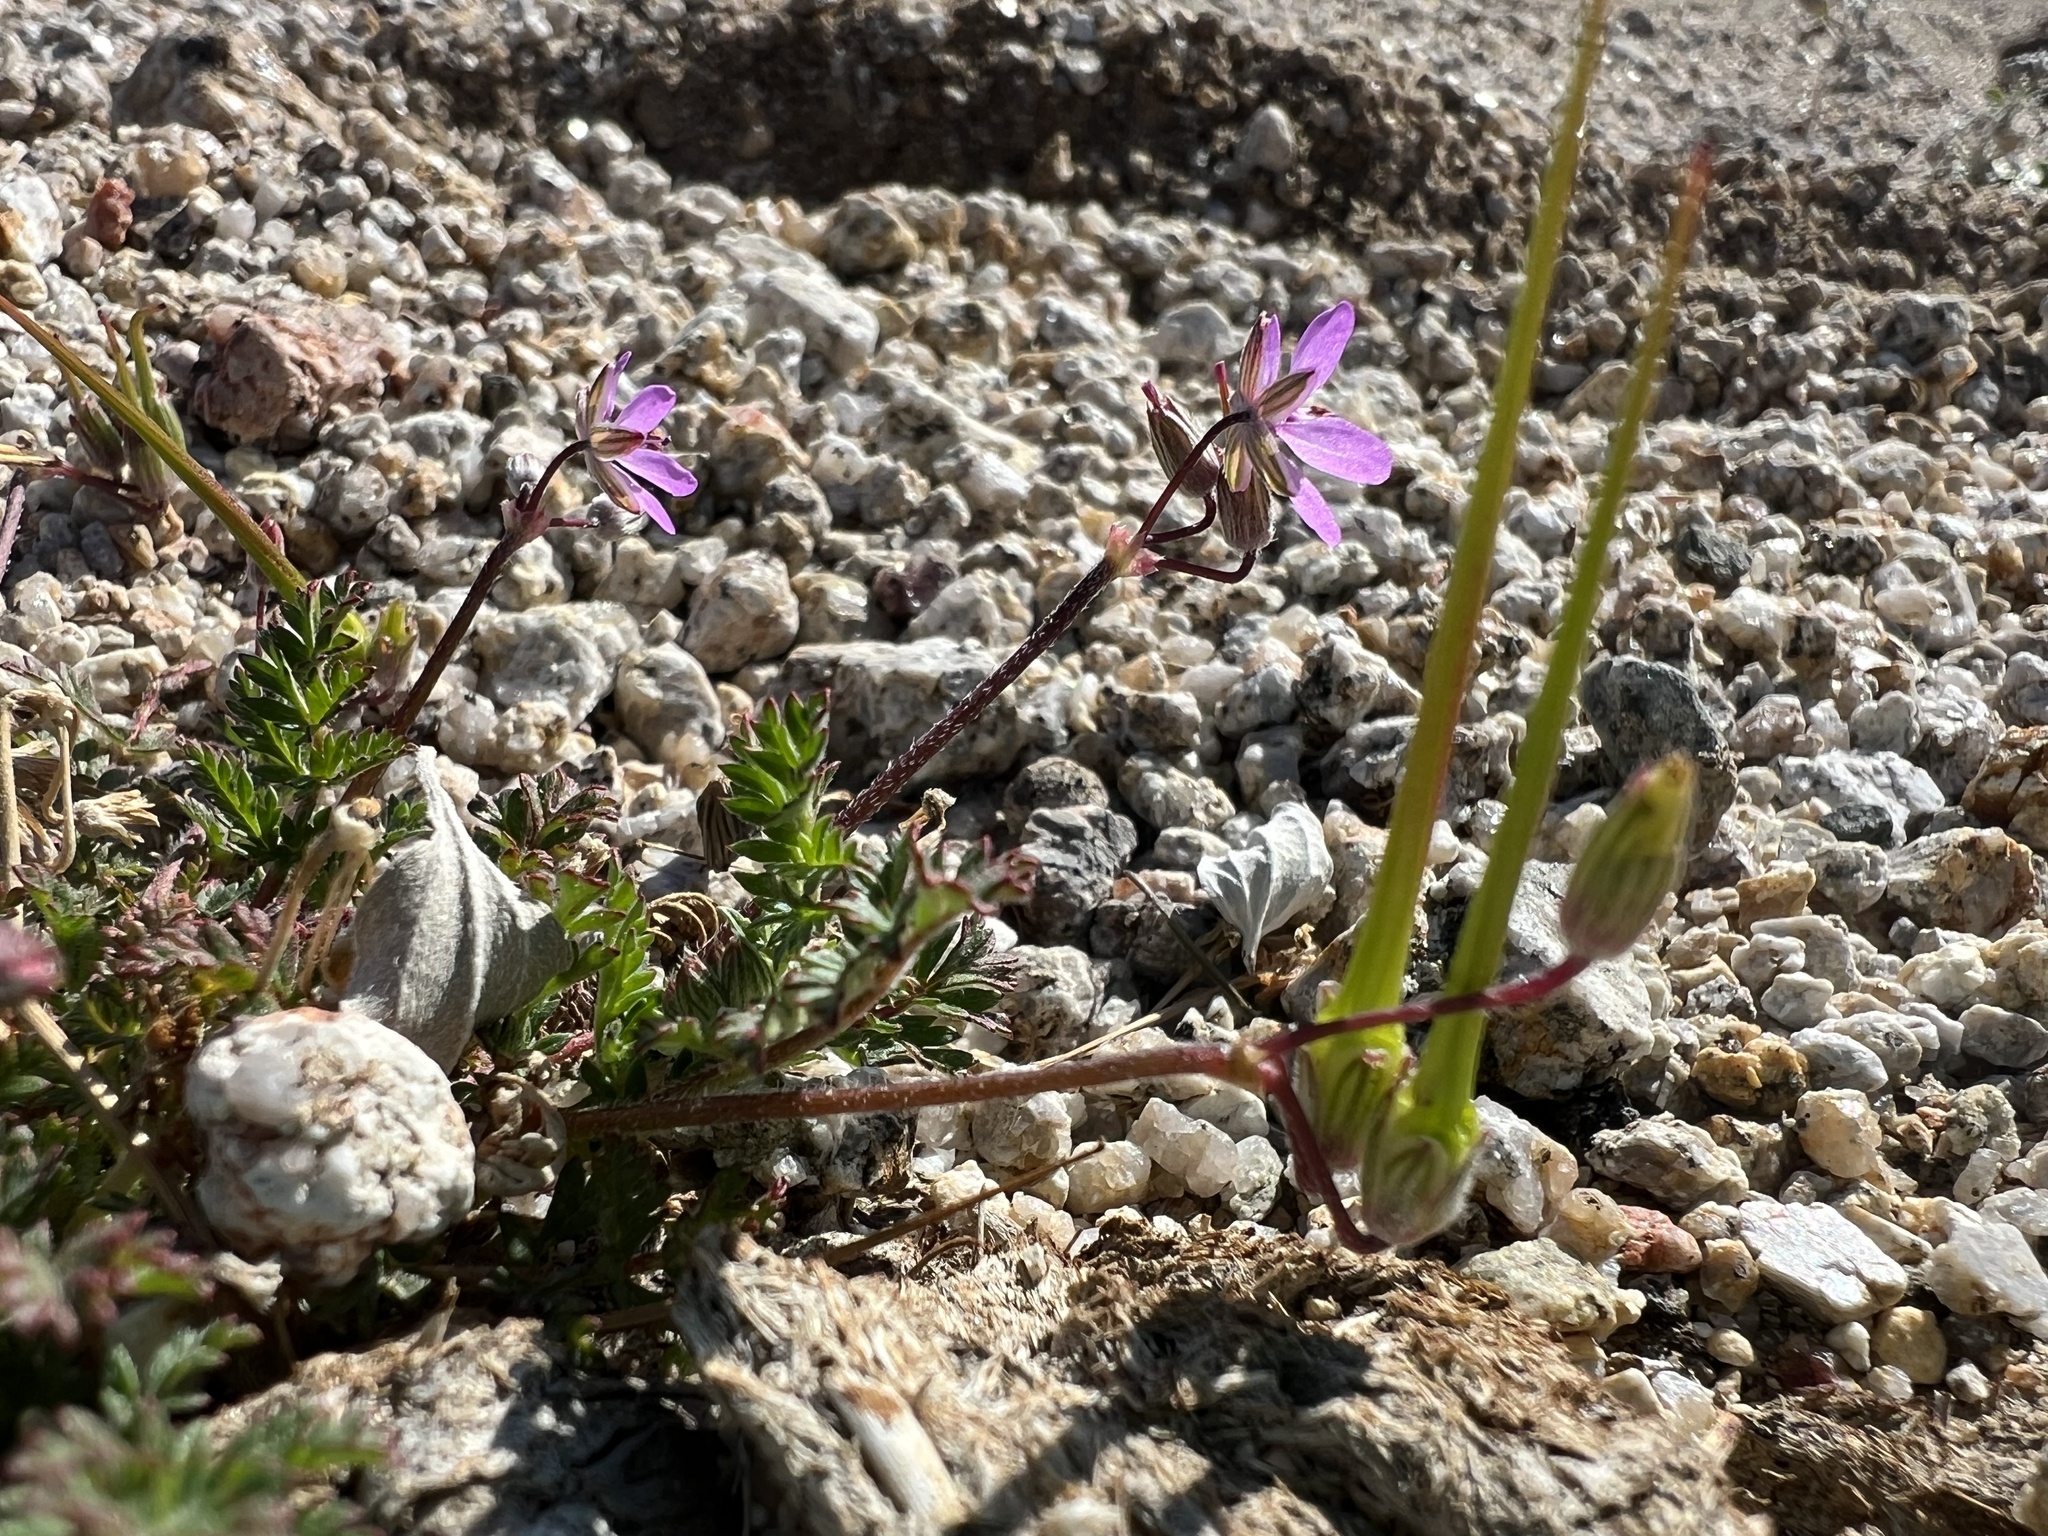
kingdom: Plantae
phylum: Tracheophyta
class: Magnoliopsida
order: Geraniales
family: Geraniaceae
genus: Erodium
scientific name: Erodium cicutarium
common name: Common stork's-bill
